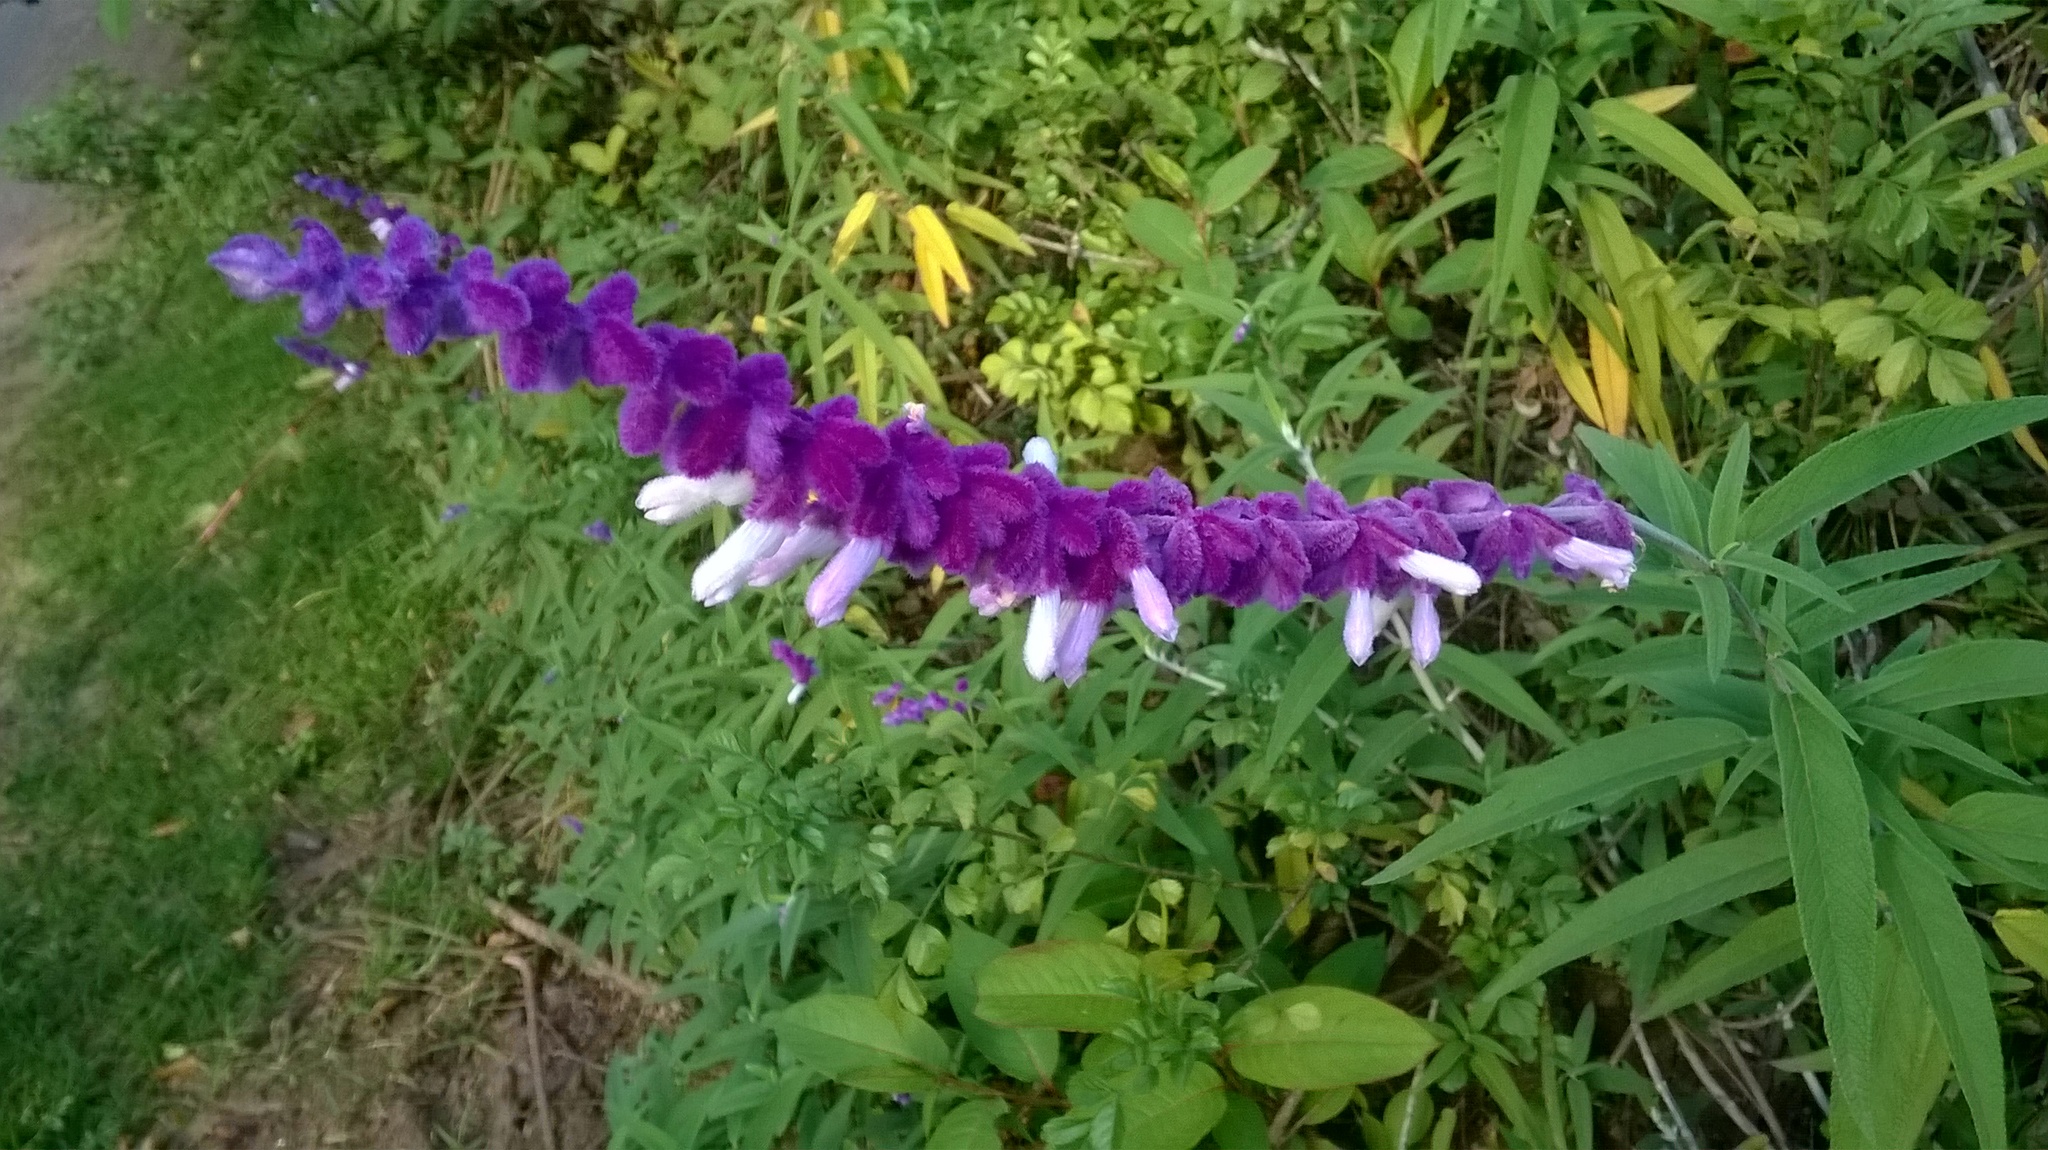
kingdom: Plantae
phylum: Tracheophyta
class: Magnoliopsida
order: Lamiales
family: Lamiaceae
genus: Salvia
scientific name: Salvia leucantha
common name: Mexican bush sage
